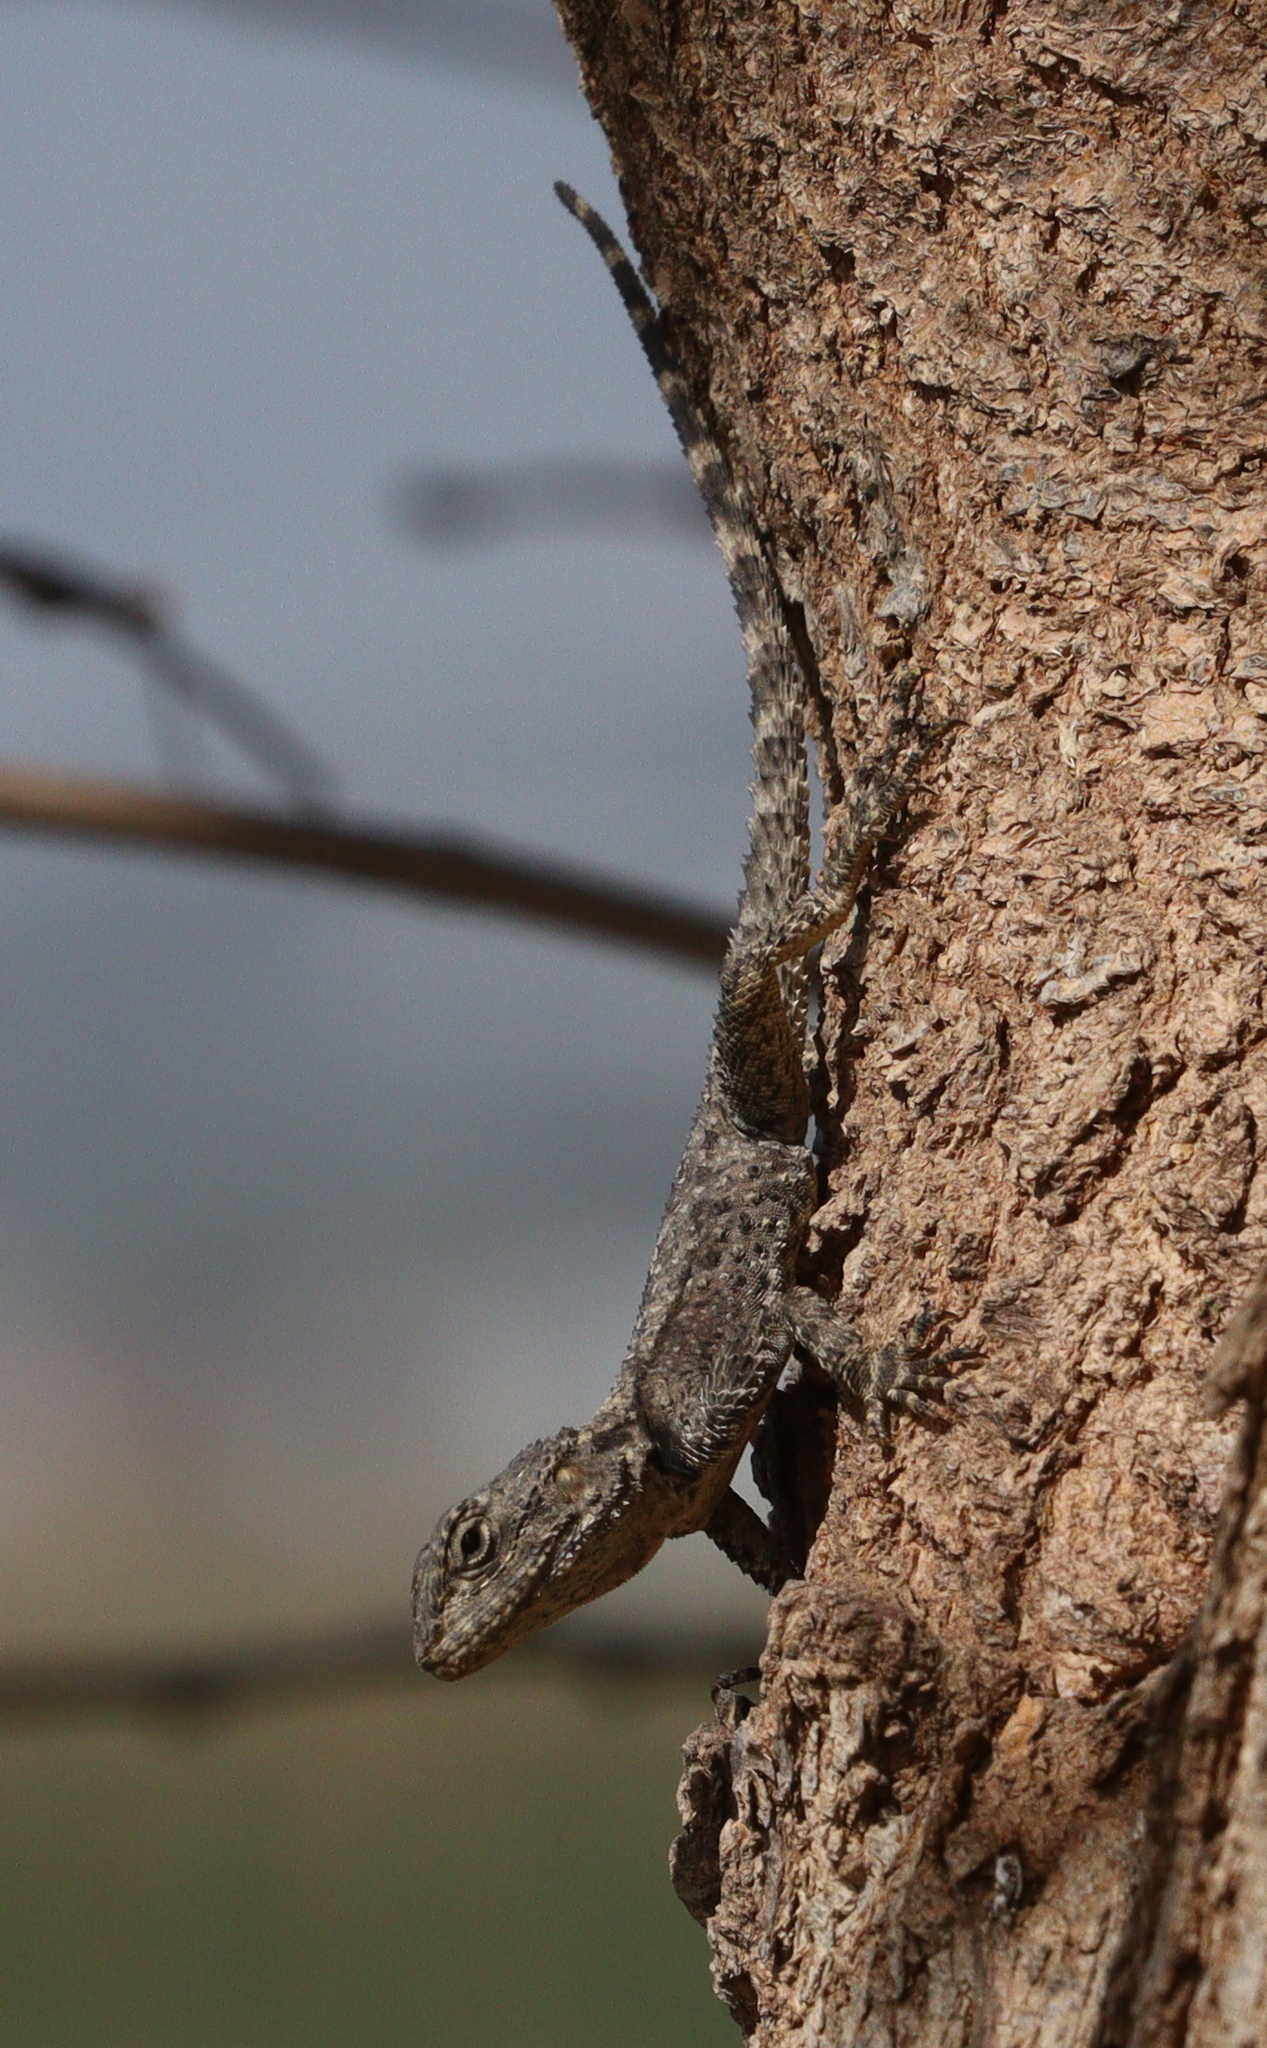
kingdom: Animalia
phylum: Chordata
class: Squamata
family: Agamidae
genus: Stellagama
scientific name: Stellagama stellio
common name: Starred agama
